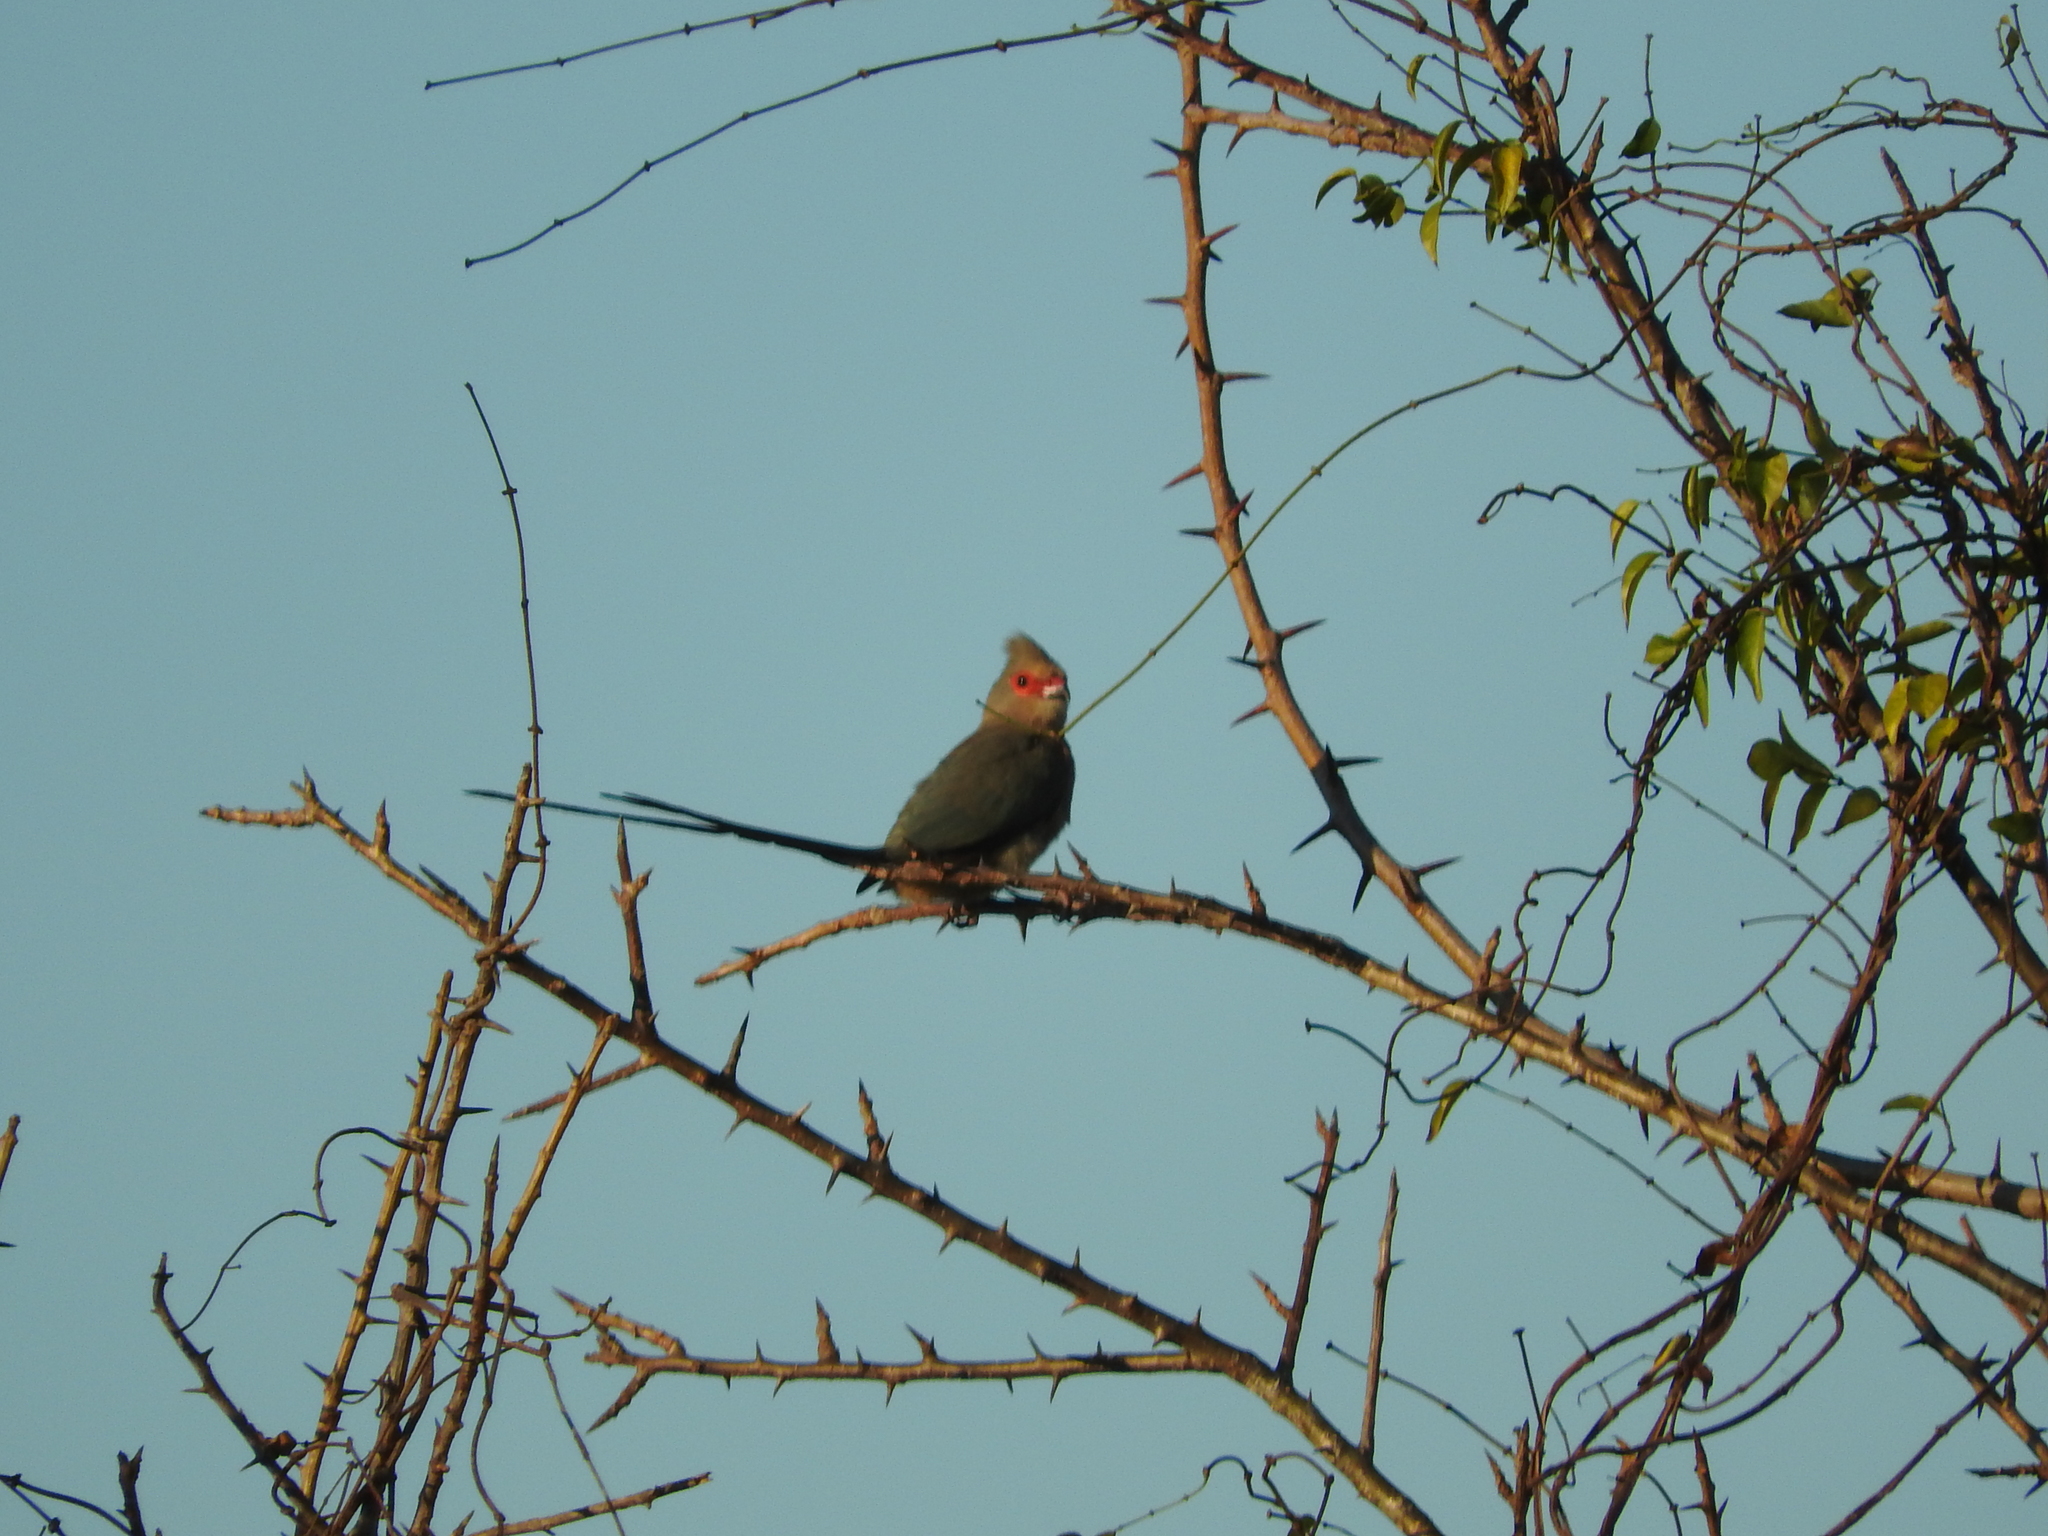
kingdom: Animalia
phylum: Chordata
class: Aves
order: Coliiformes
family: Coliidae
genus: Urocolius
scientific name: Urocolius indicus
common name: Red-faced mousebird
